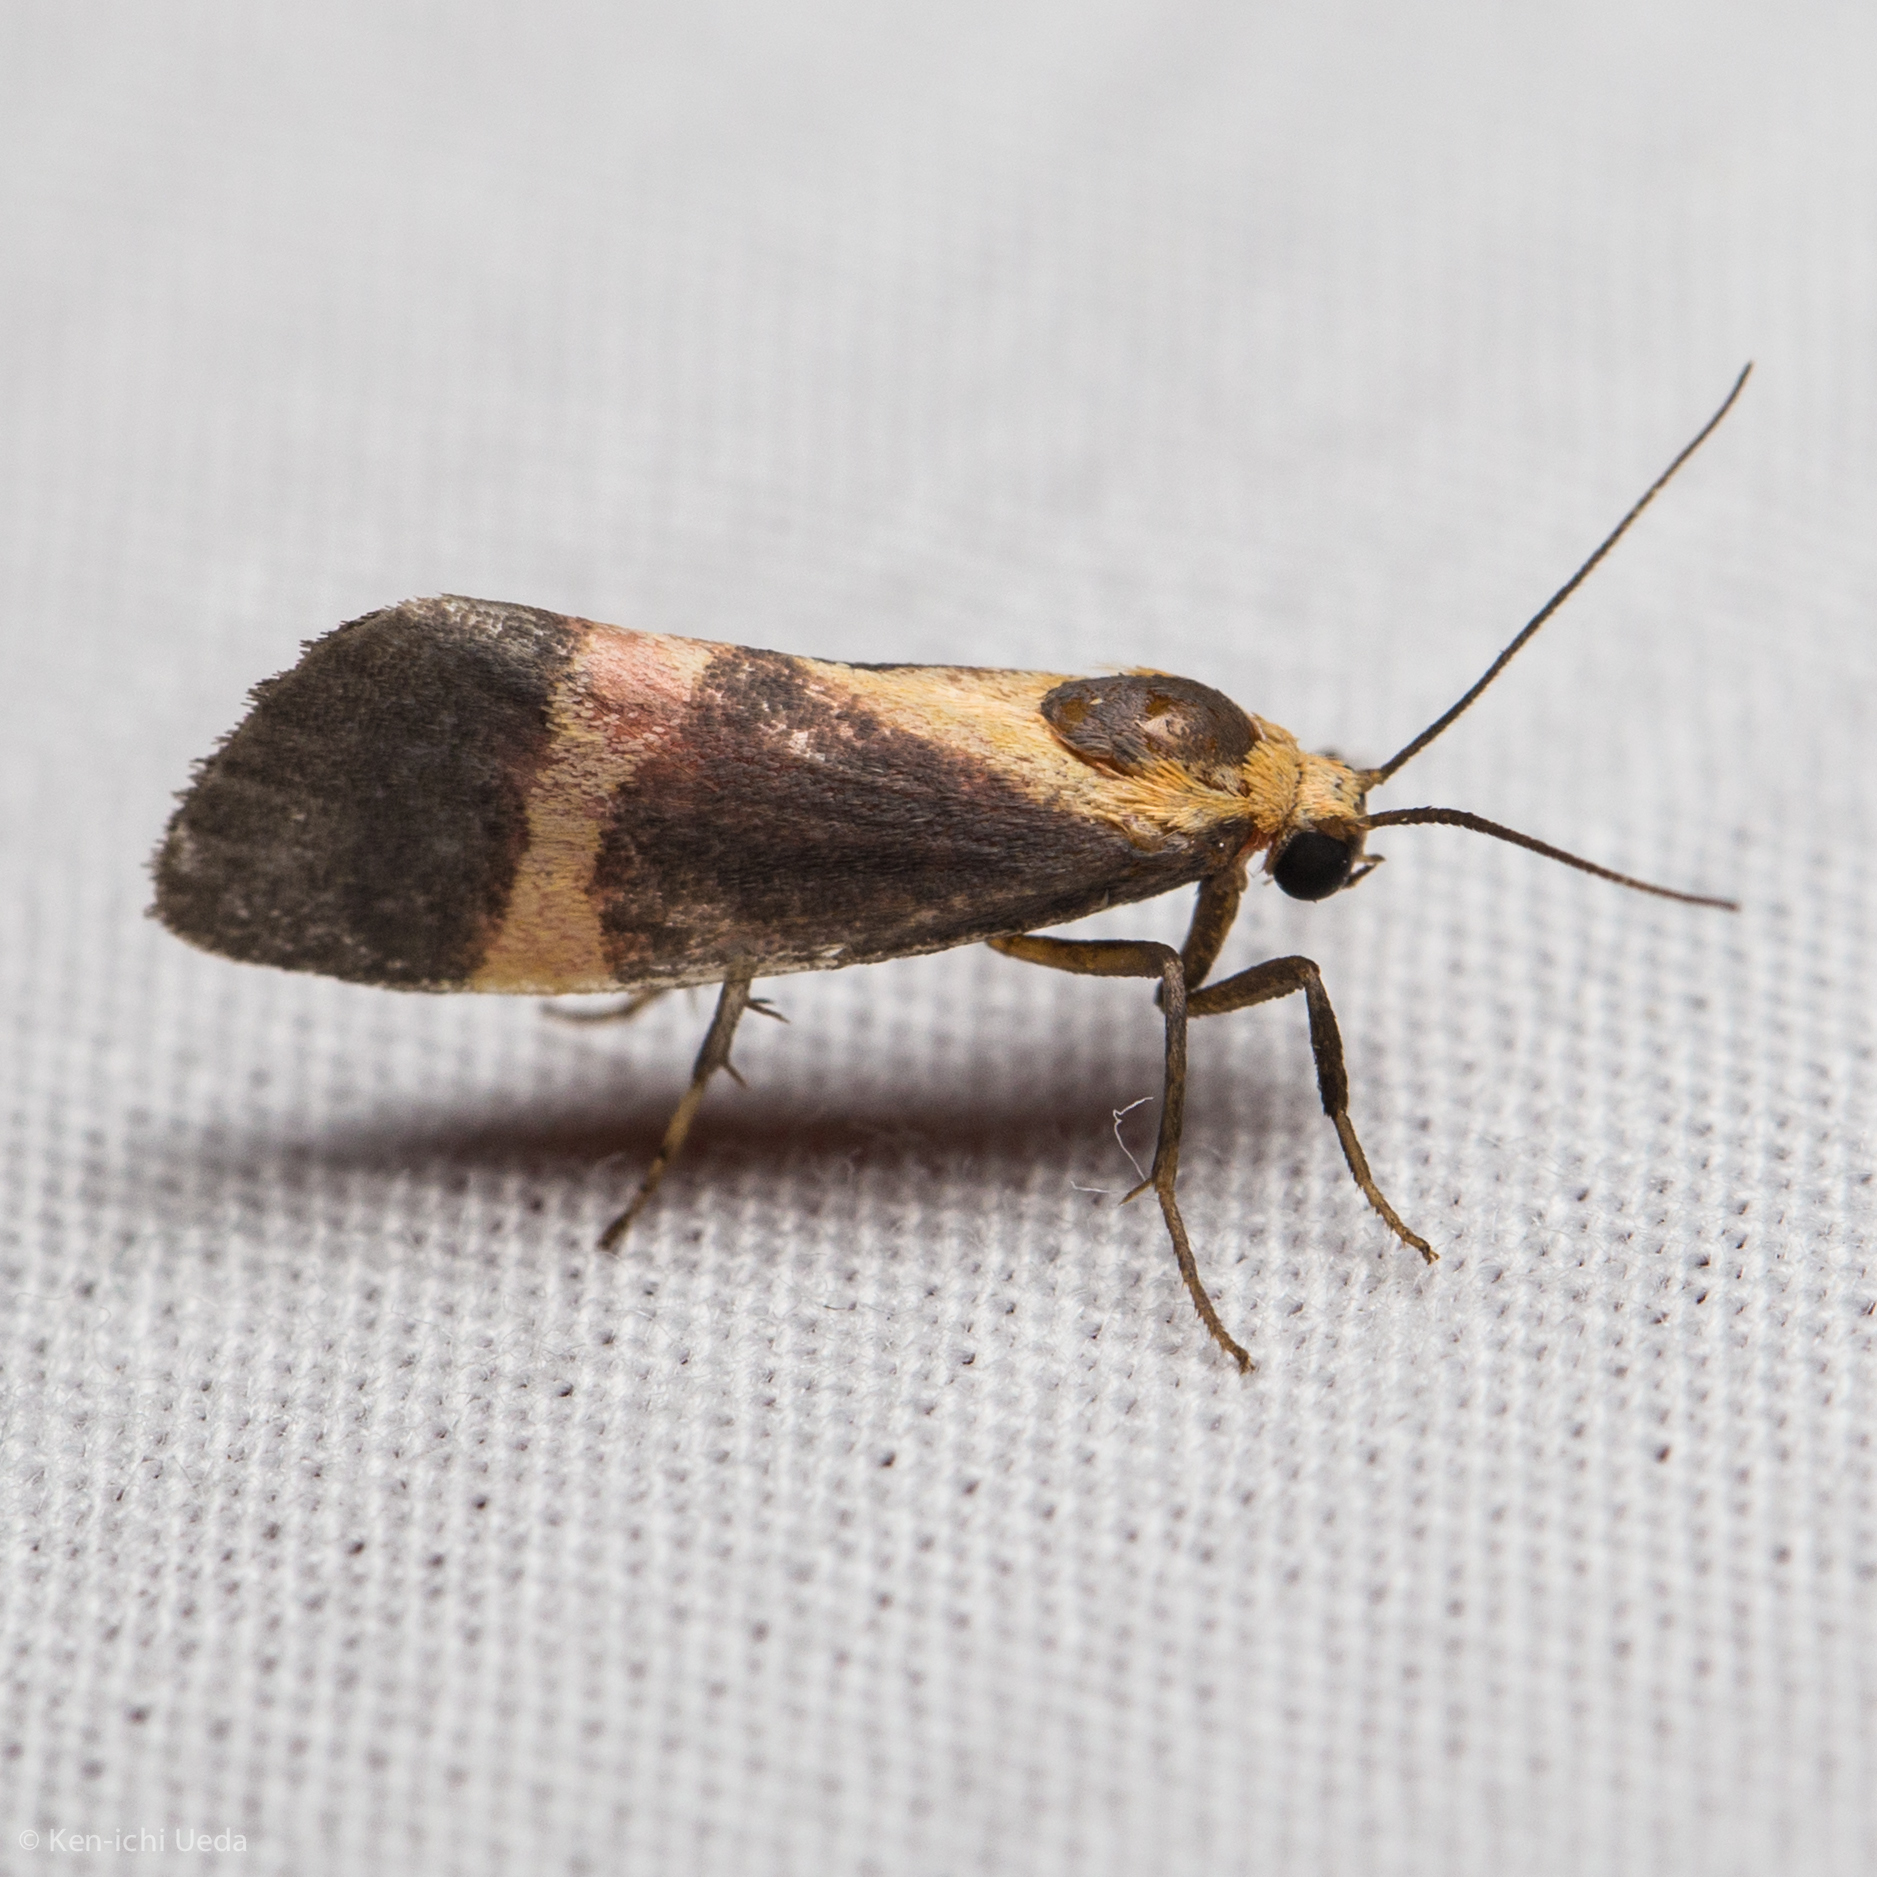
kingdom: Animalia
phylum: Arthropoda
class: Insecta
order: Lepidoptera
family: Erebidae
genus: Cisthene
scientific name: Cisthene tenuifascia
